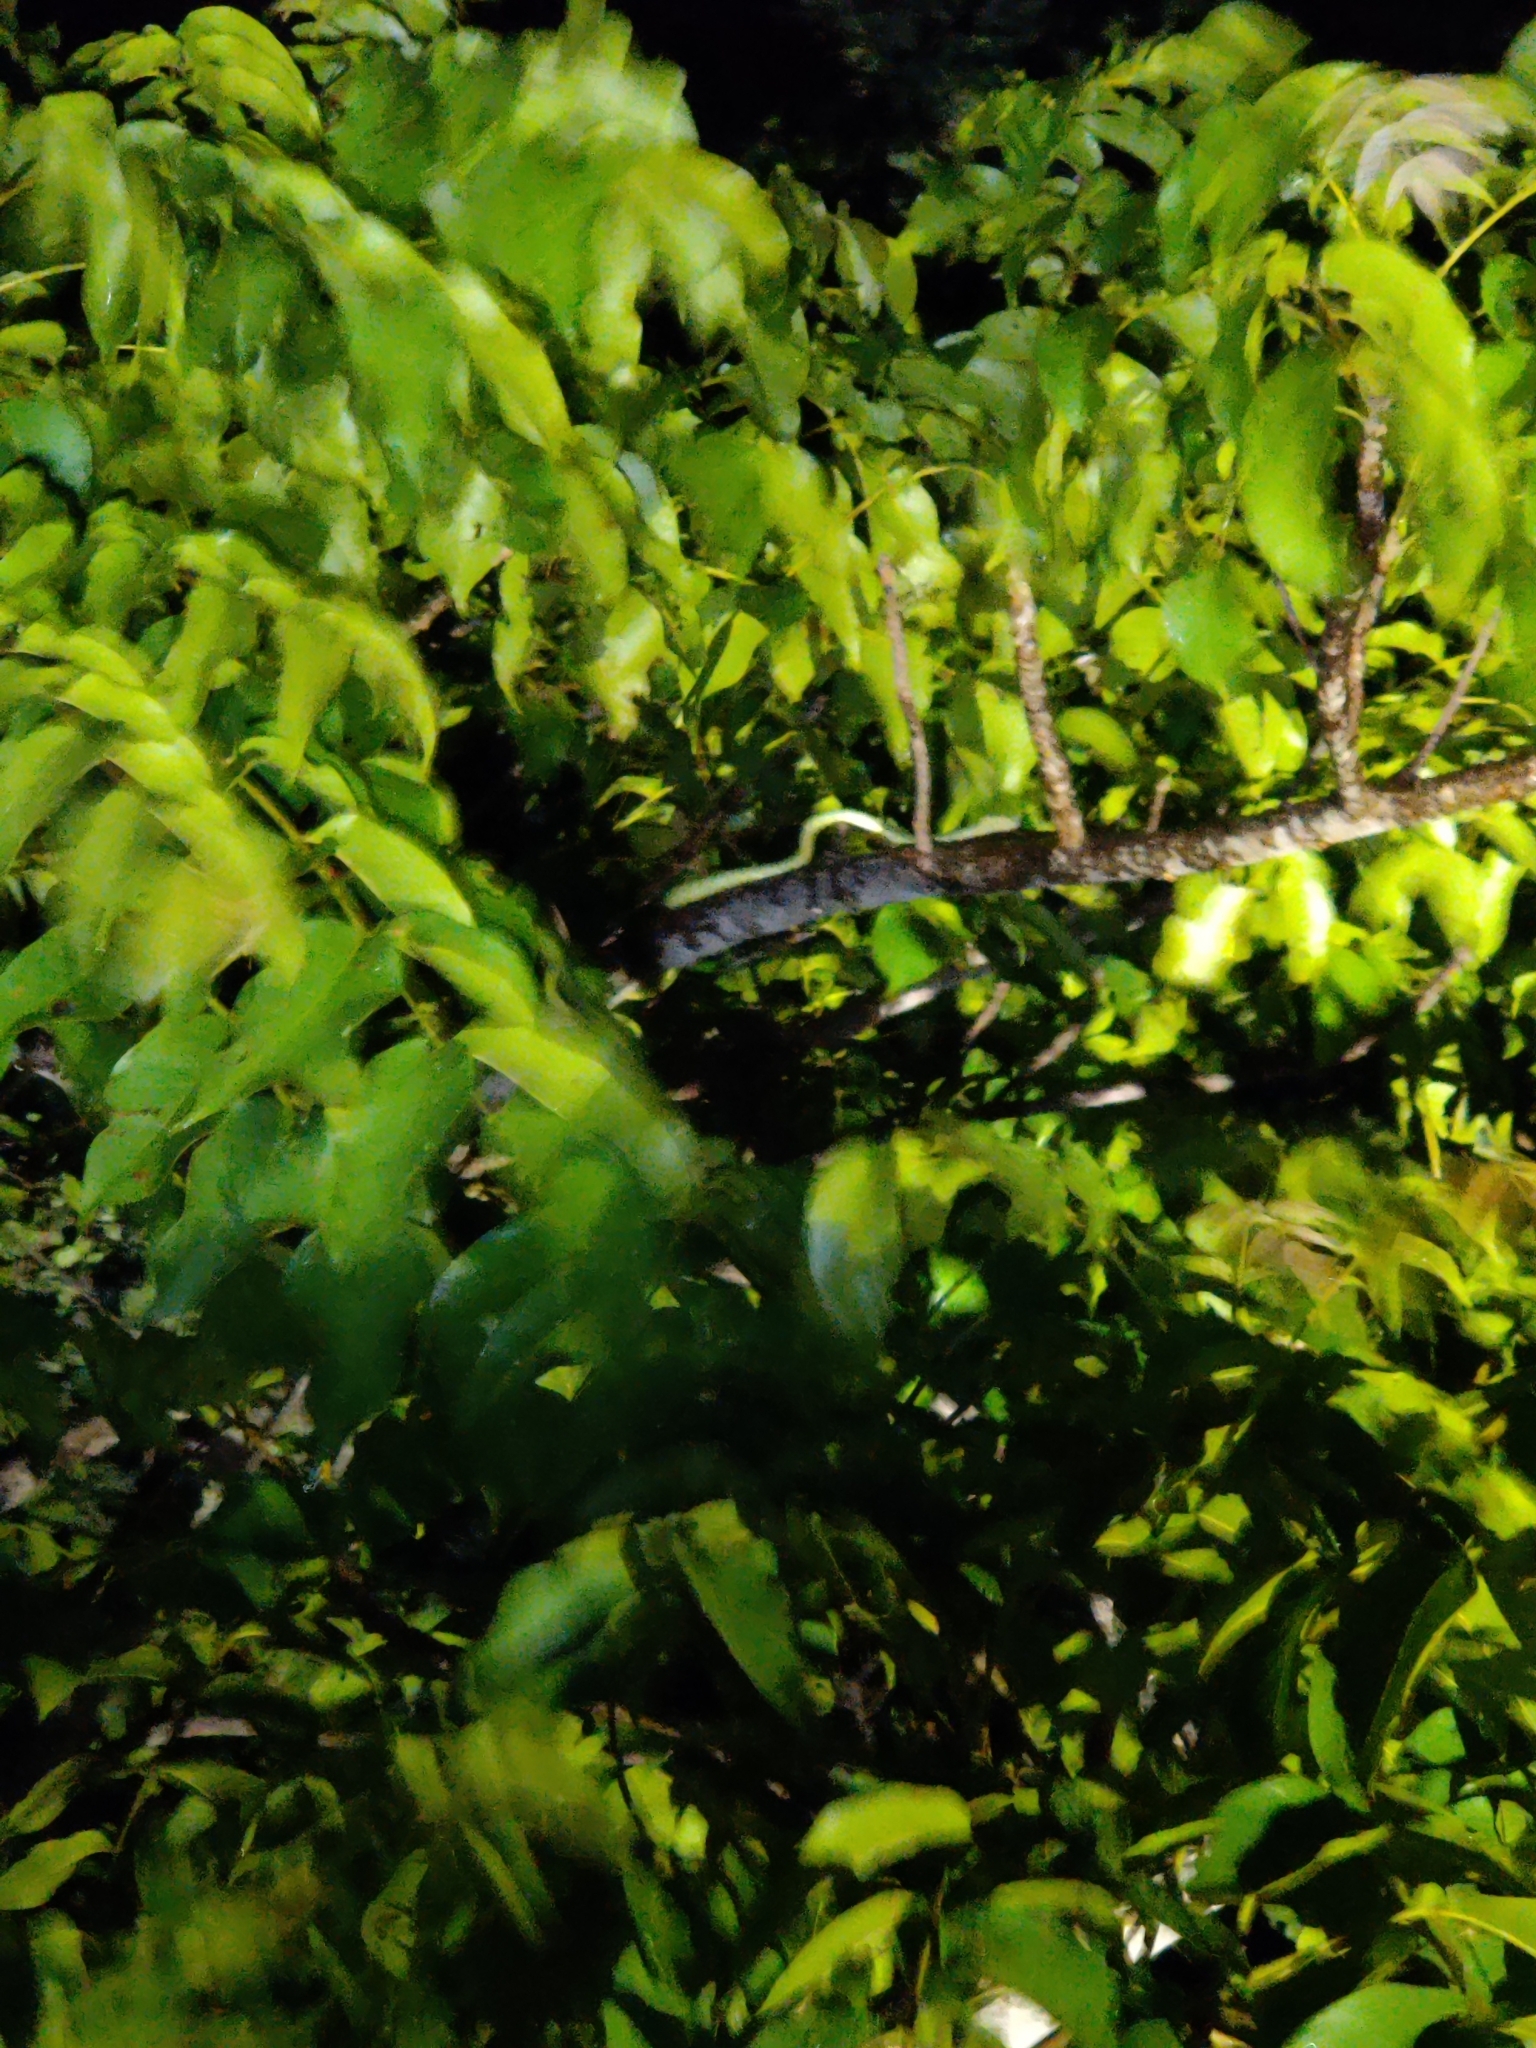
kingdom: Animalia
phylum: Chordata
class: Squamata
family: Viperidae
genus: Craspedocephalus
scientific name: Craspedocephalus gramineus
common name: Common bamboo viper
